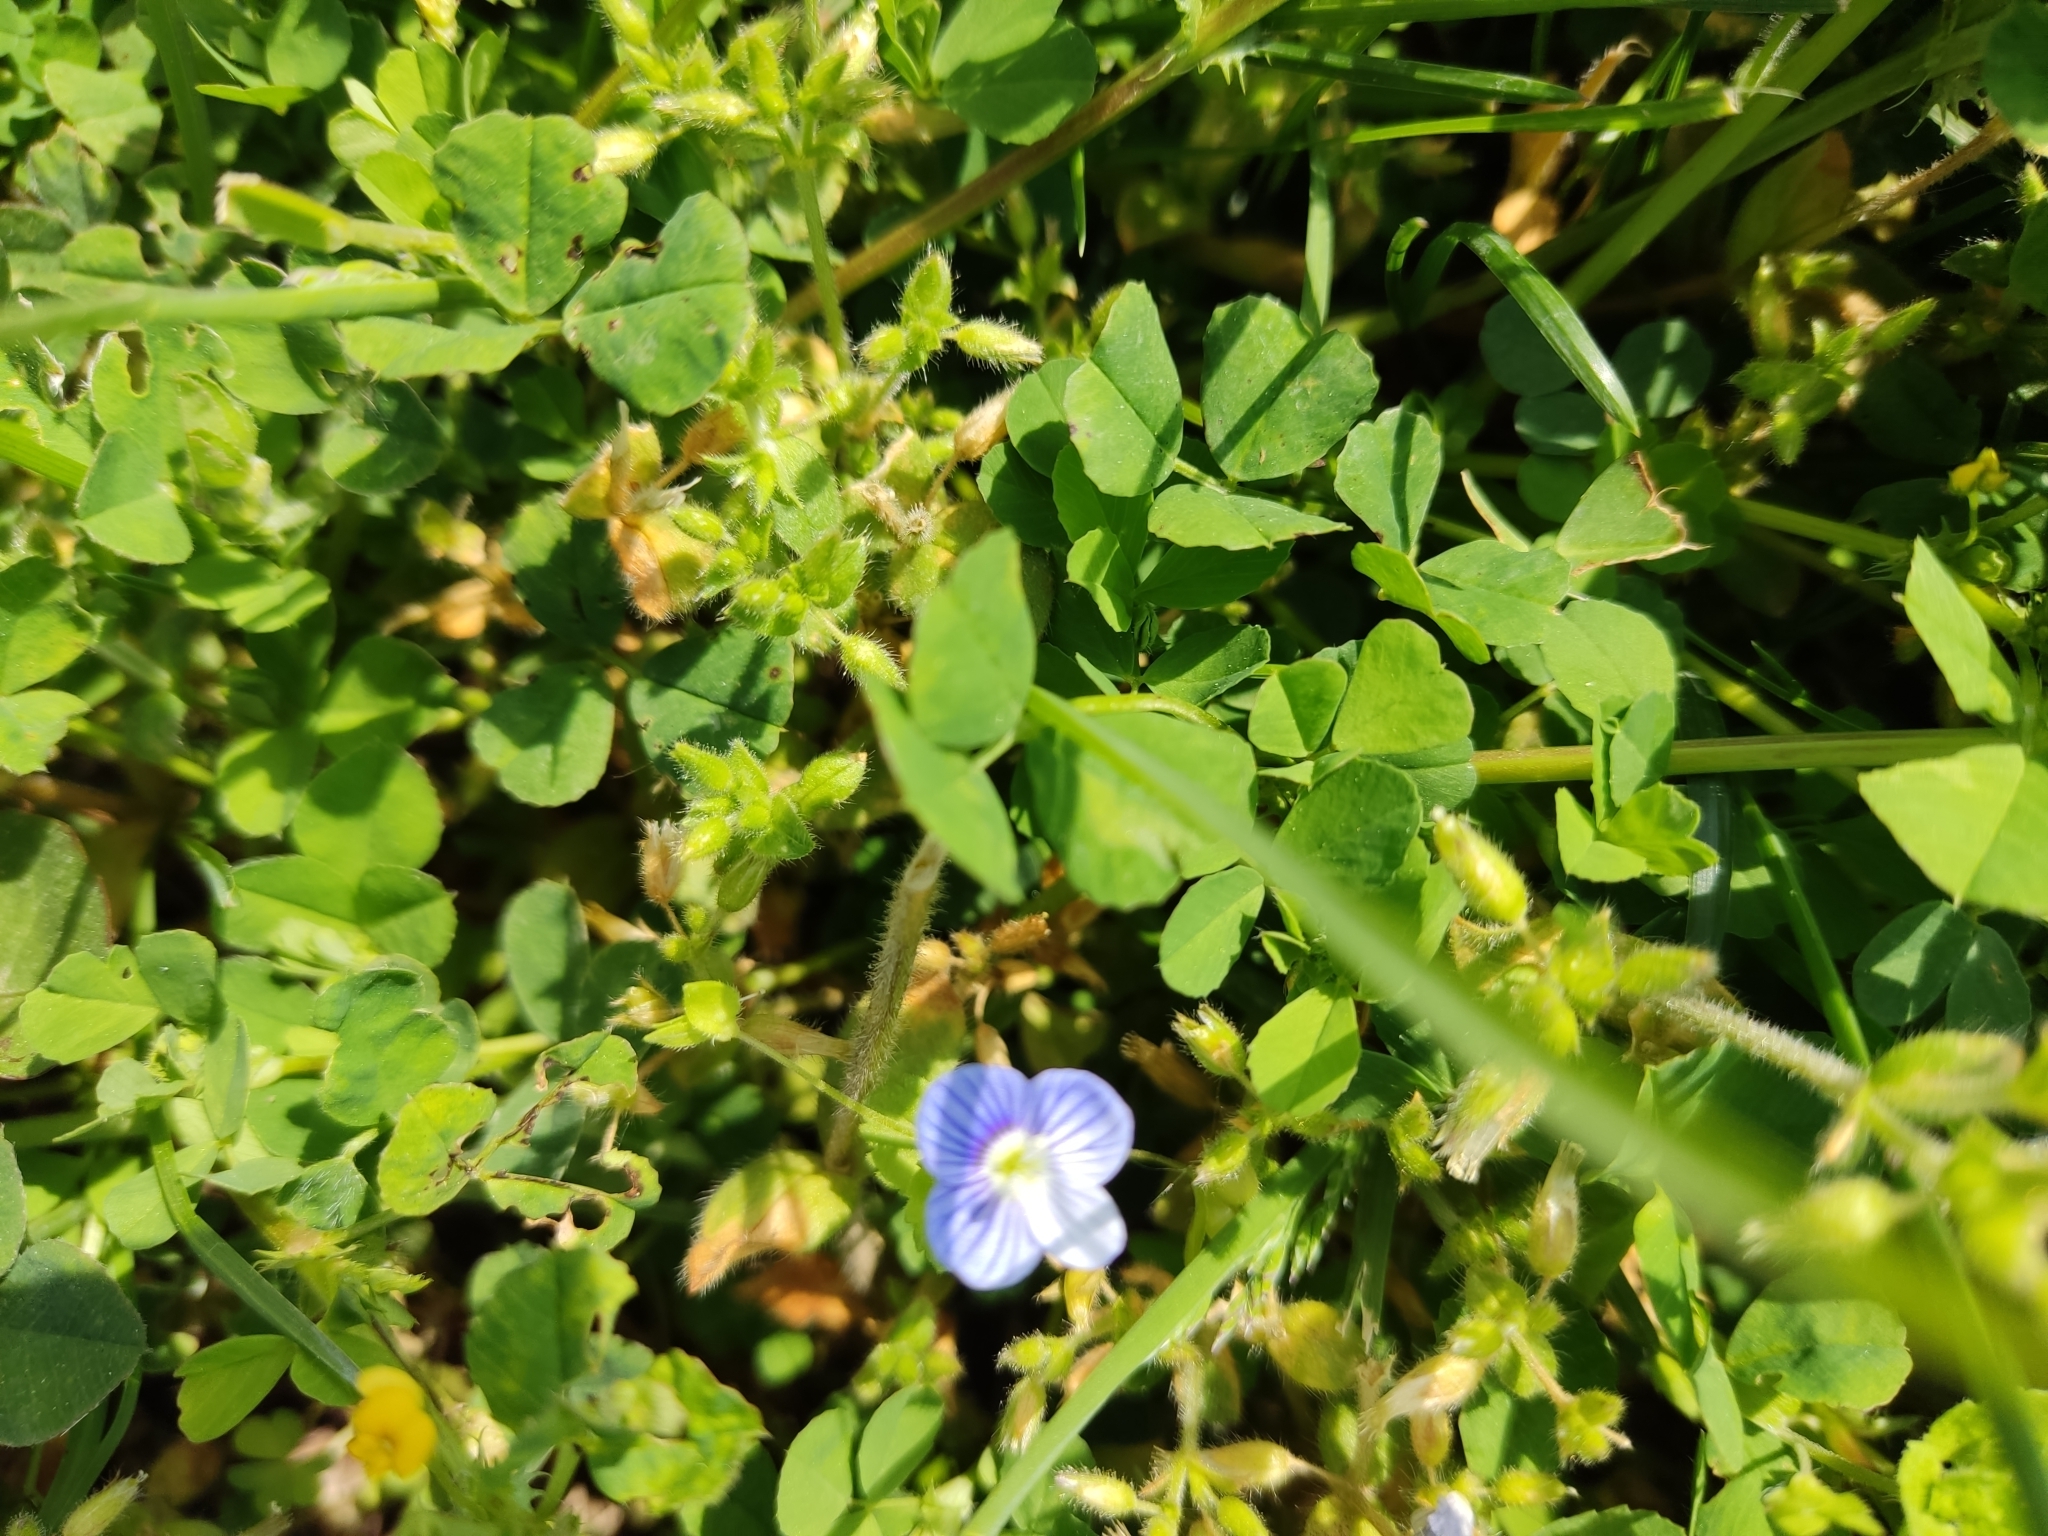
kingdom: Plantae
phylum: Tracheophyta
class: Magnoliopsida
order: Lamiales
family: Plantaginaceae
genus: Veronica
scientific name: Veronica persica
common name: Common field-speedwell
